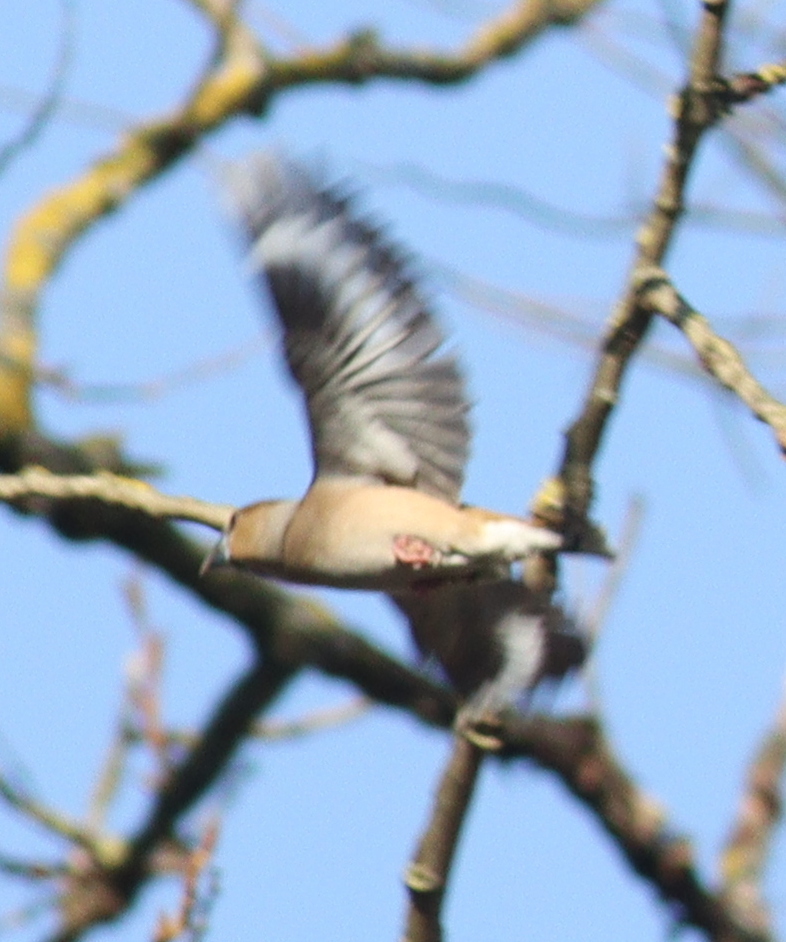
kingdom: Animalia
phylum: Chordata
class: Aves
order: Passeriformes
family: Fringillidae
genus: Coccothraustes
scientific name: Coccothraustes coccothraustes
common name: Hawfinch
